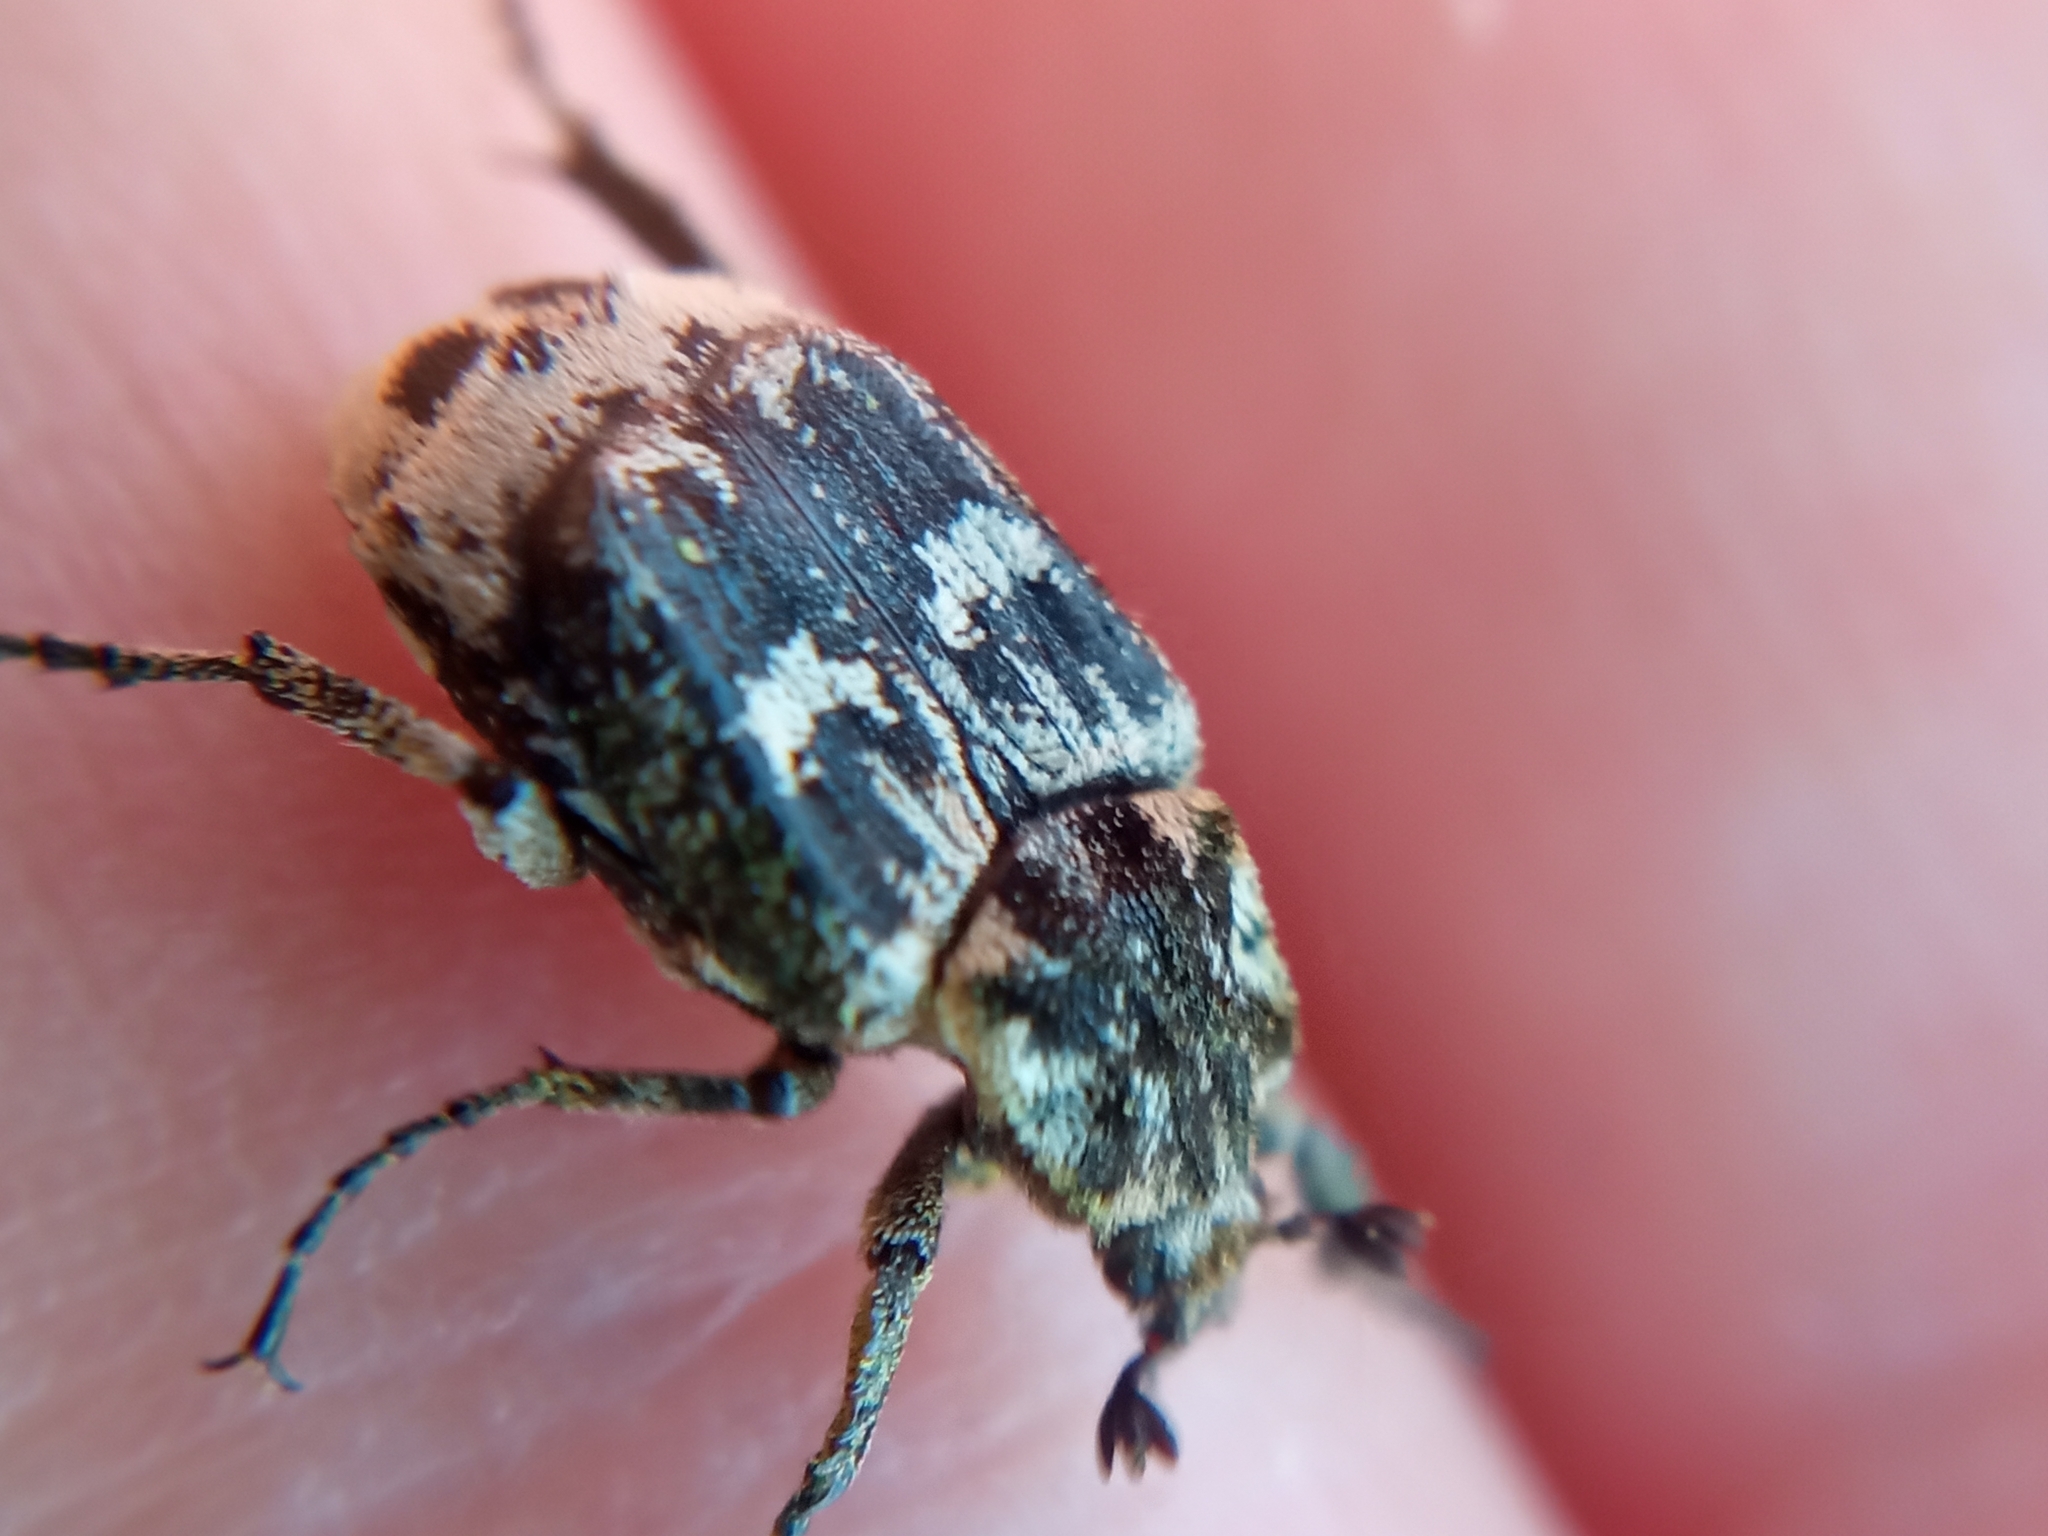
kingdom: Animalia
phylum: Arthropoda
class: Insecta
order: Coleoptera
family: Scarabaeidae
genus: Valgus
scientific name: Valgus hemipterus
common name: Bug flower chafer
